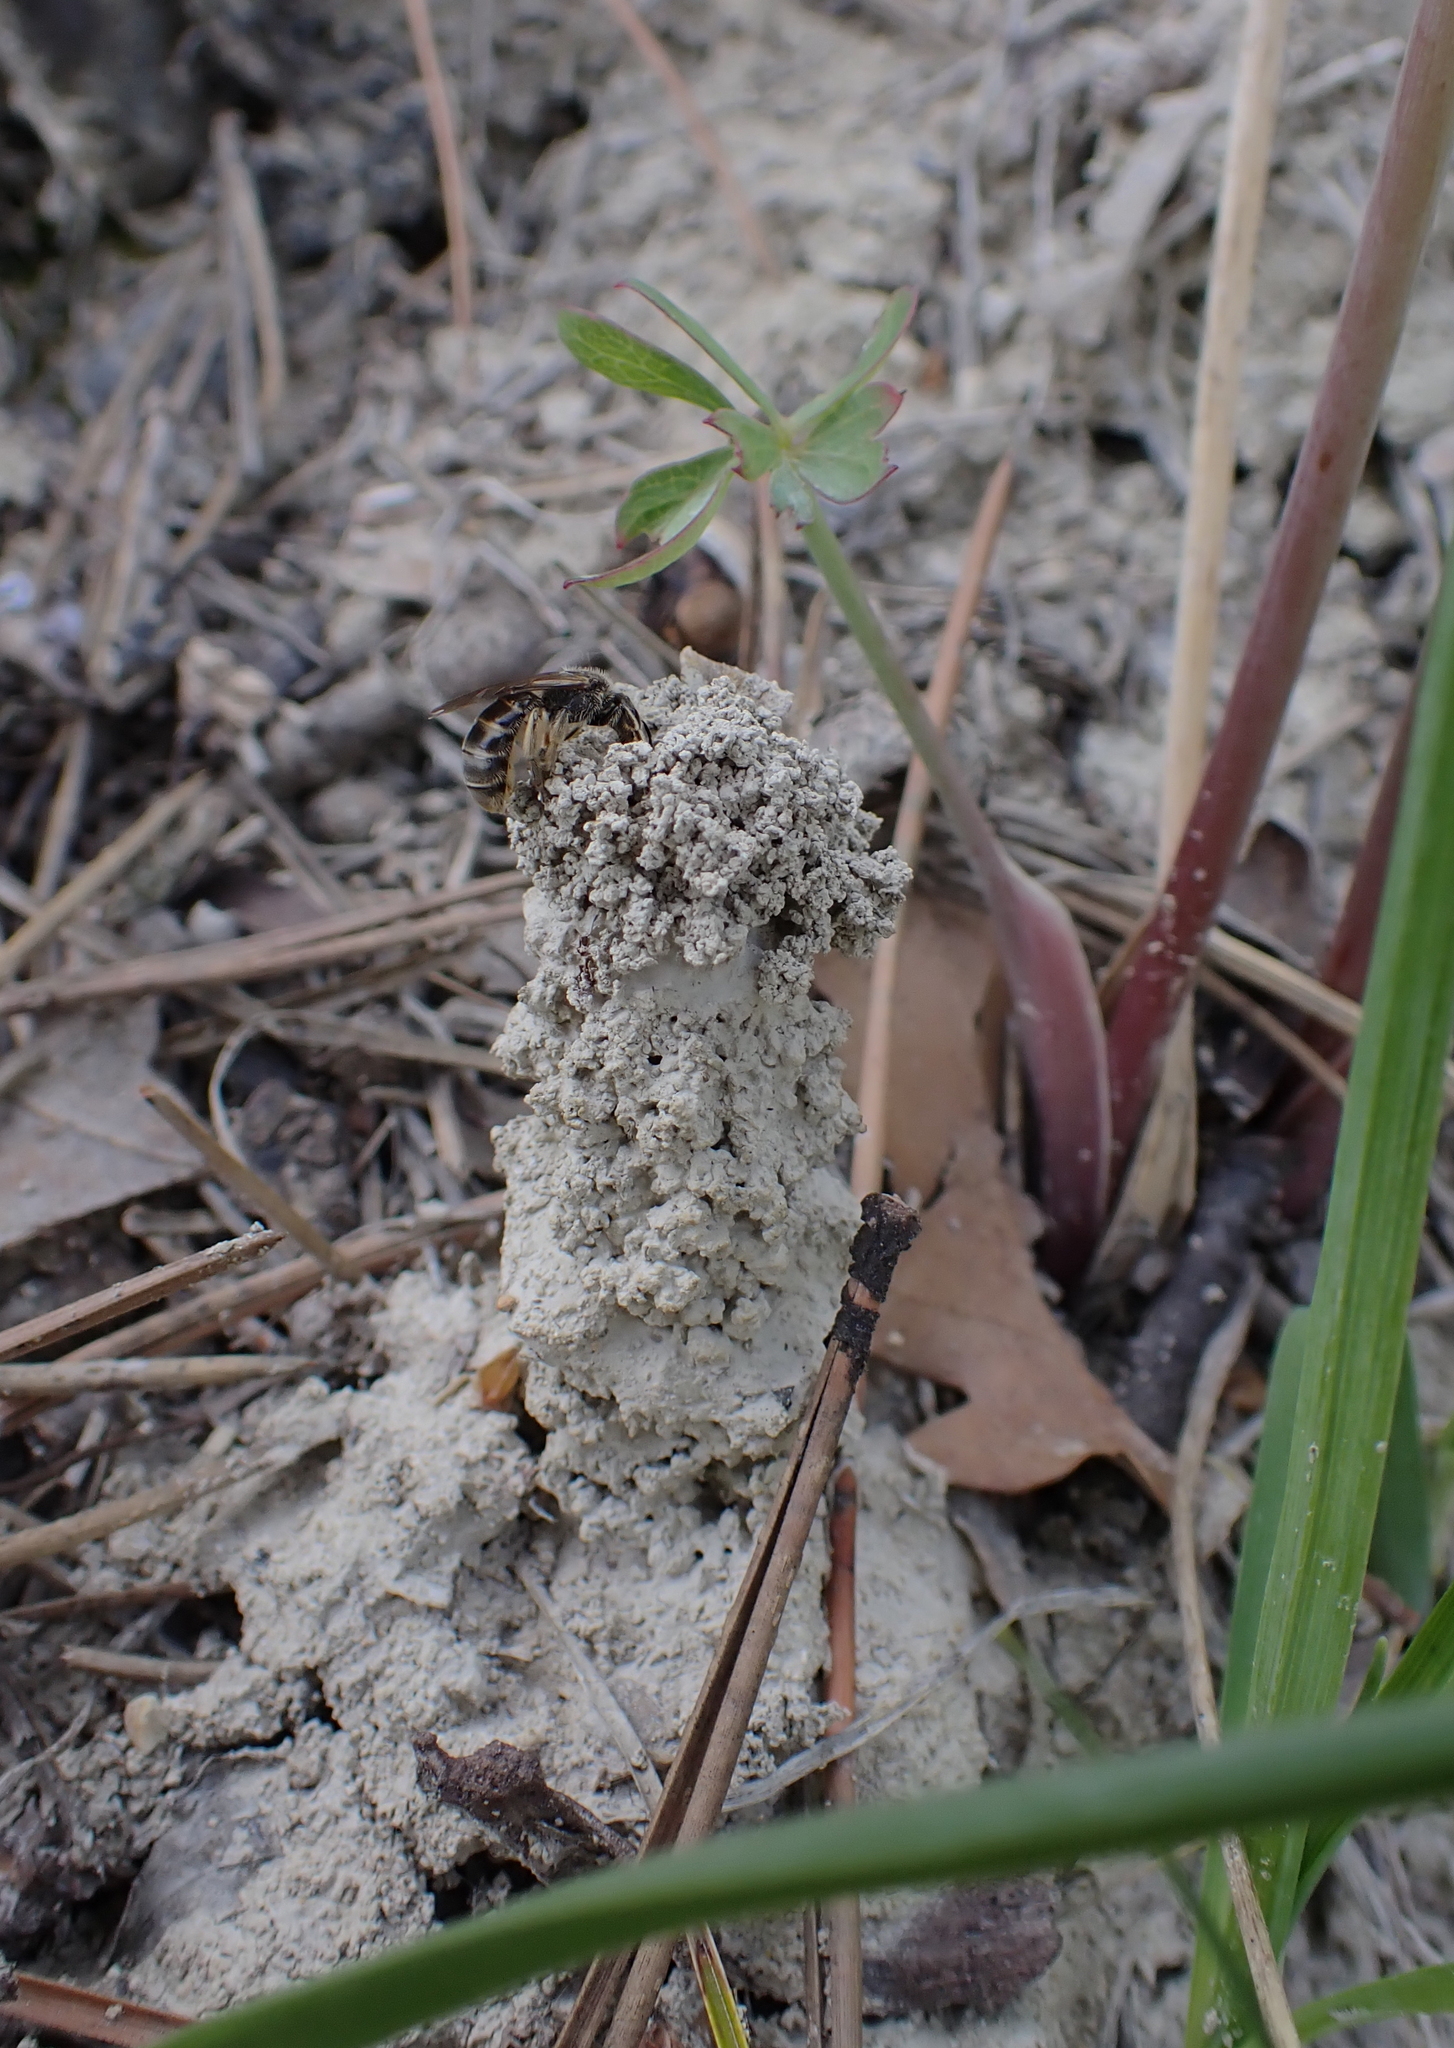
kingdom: Animalia
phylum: Arthropoda
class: Insecta
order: Hymenoptera
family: Halictidae
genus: Lasioglossum
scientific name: Lasioglossum marginatum
